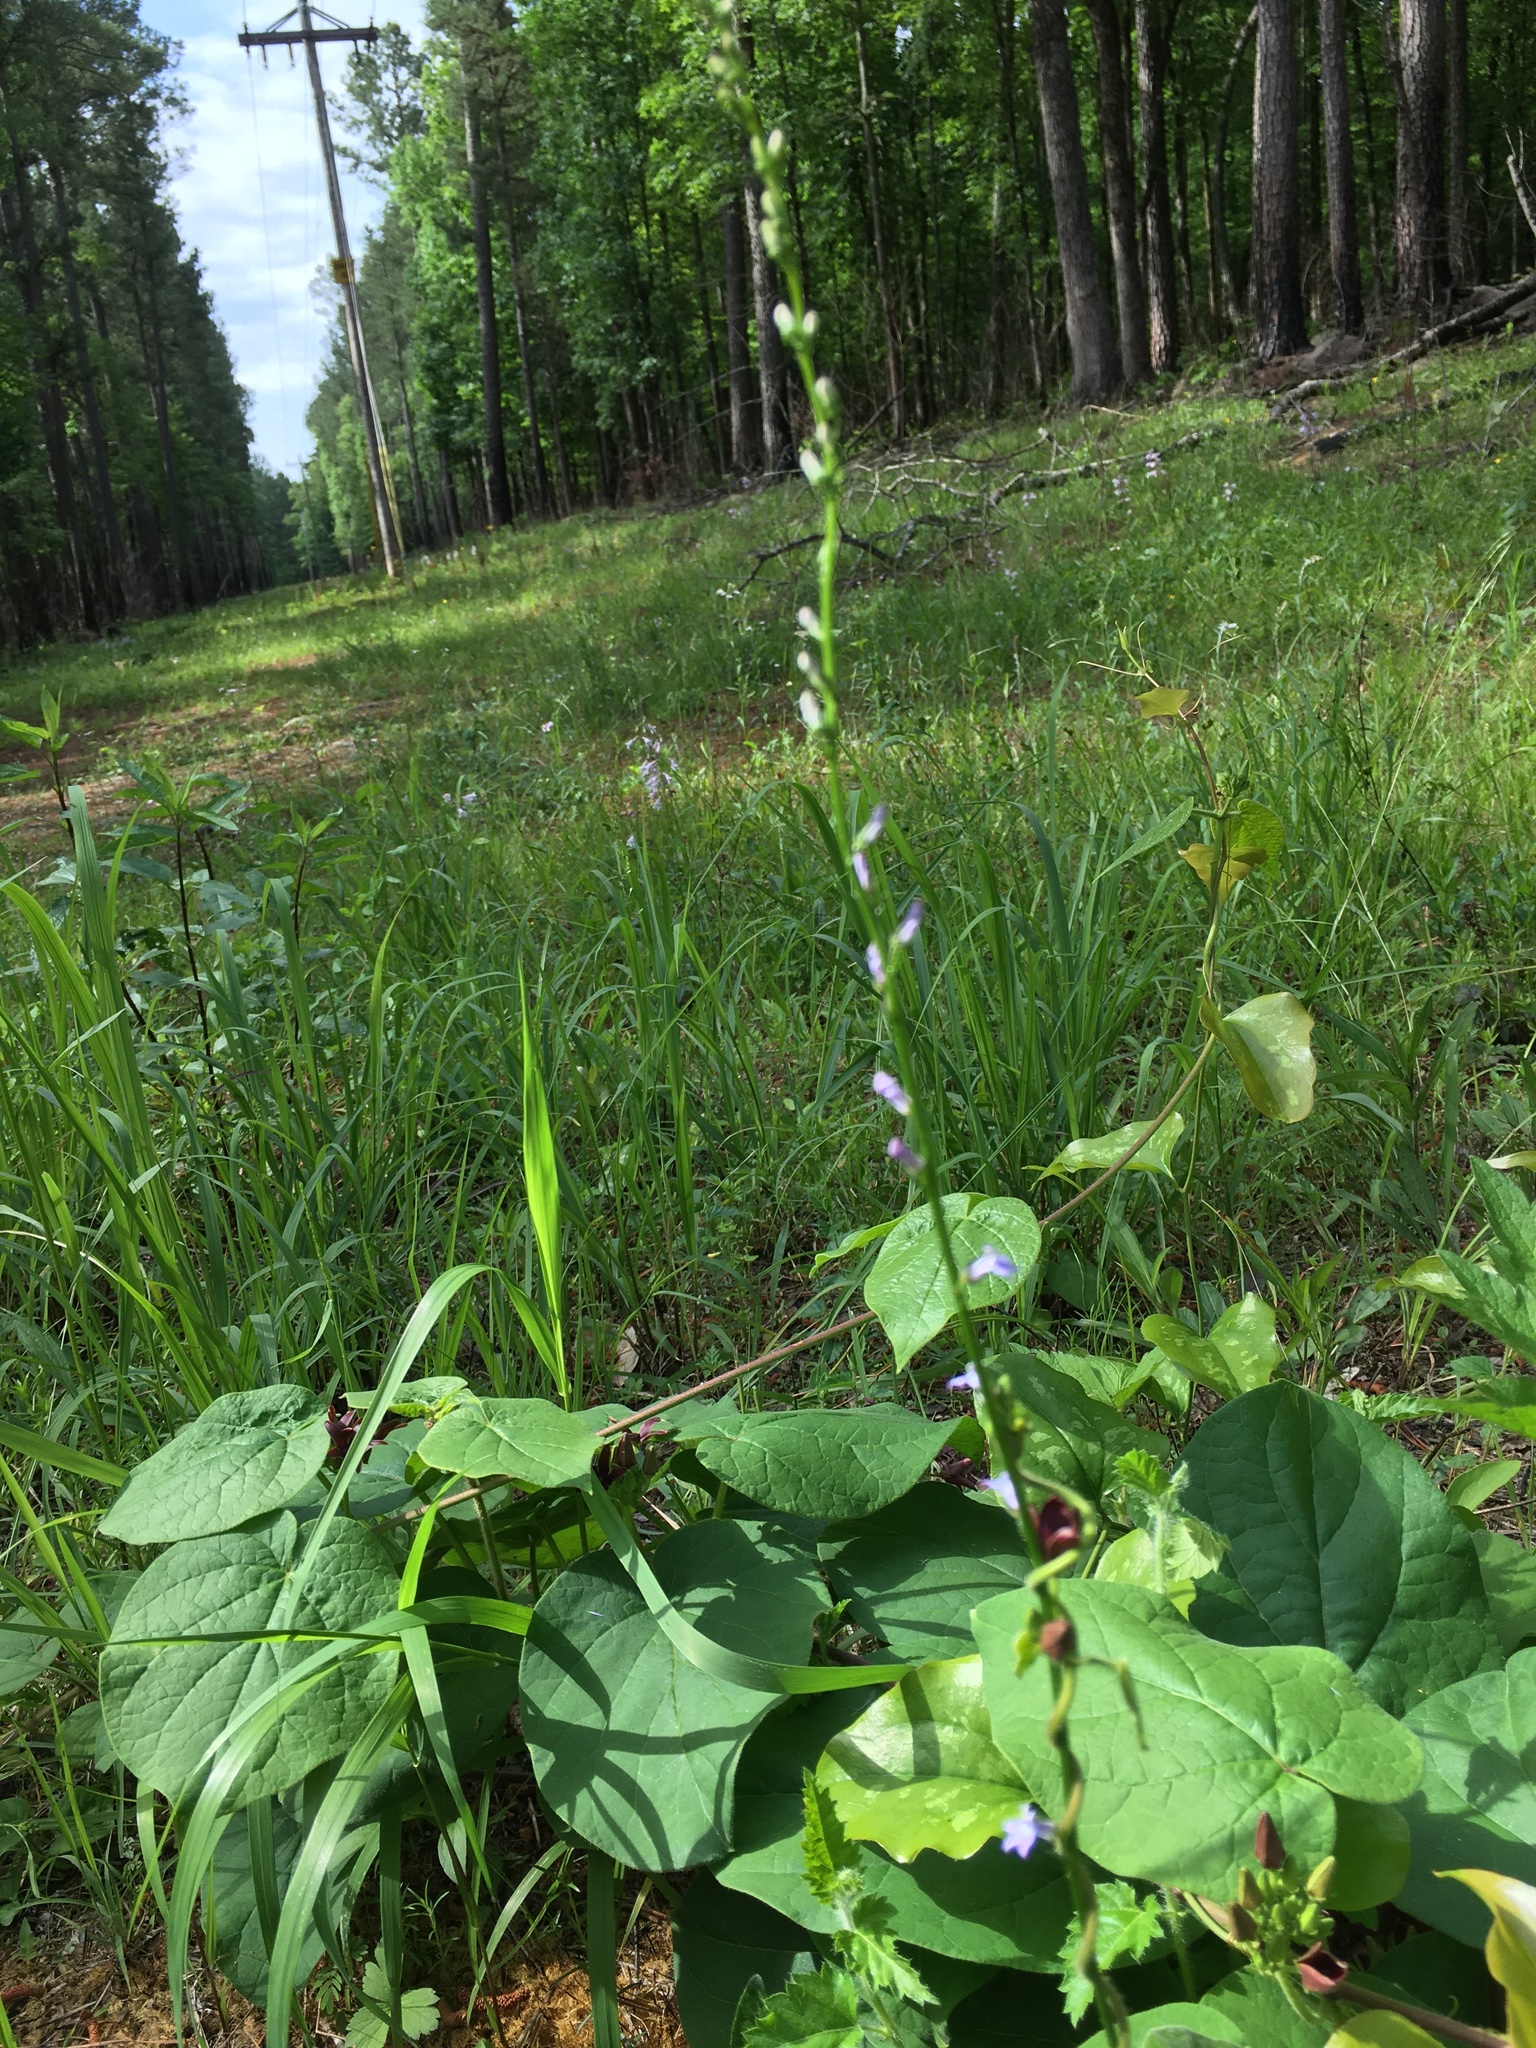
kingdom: Plantae
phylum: Tracheophyta
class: Magnoliopsida
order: Asterales
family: Campanulaceae
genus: Lobelia
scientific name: Lobelia spicata
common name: Pale-spike lobelia
